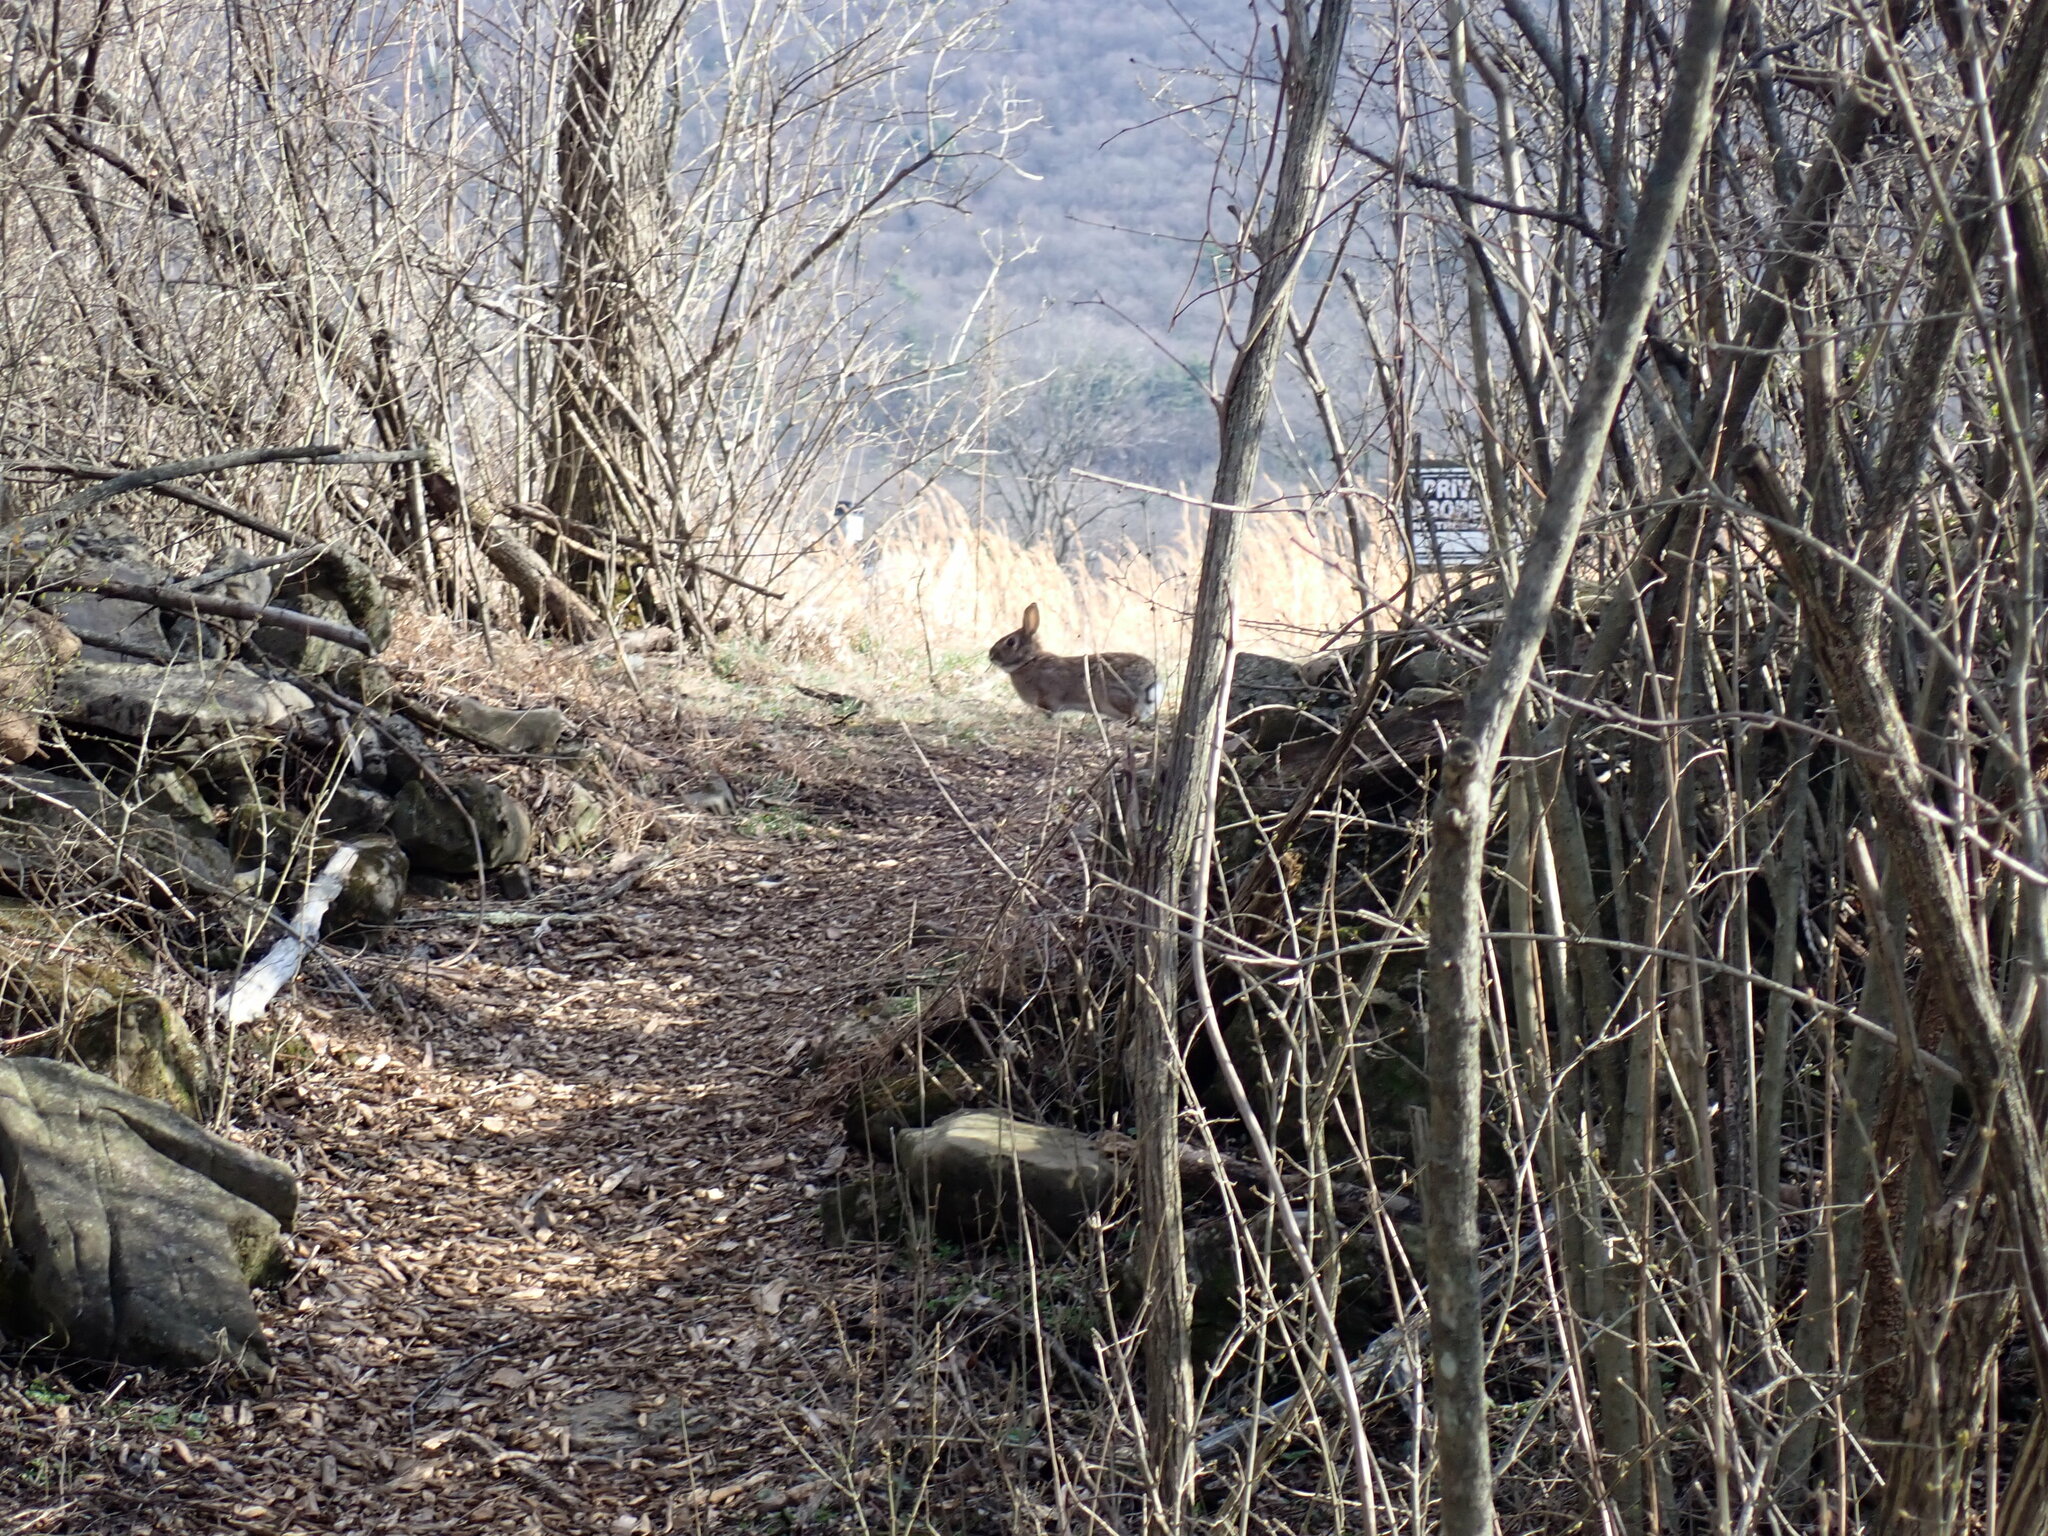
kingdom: Animalia
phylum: Chordata
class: Mammalia
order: Lagomorpha
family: Leporidae
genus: Sylvilagus
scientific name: Sylvilagus floridanus
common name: Eastern cottontail
